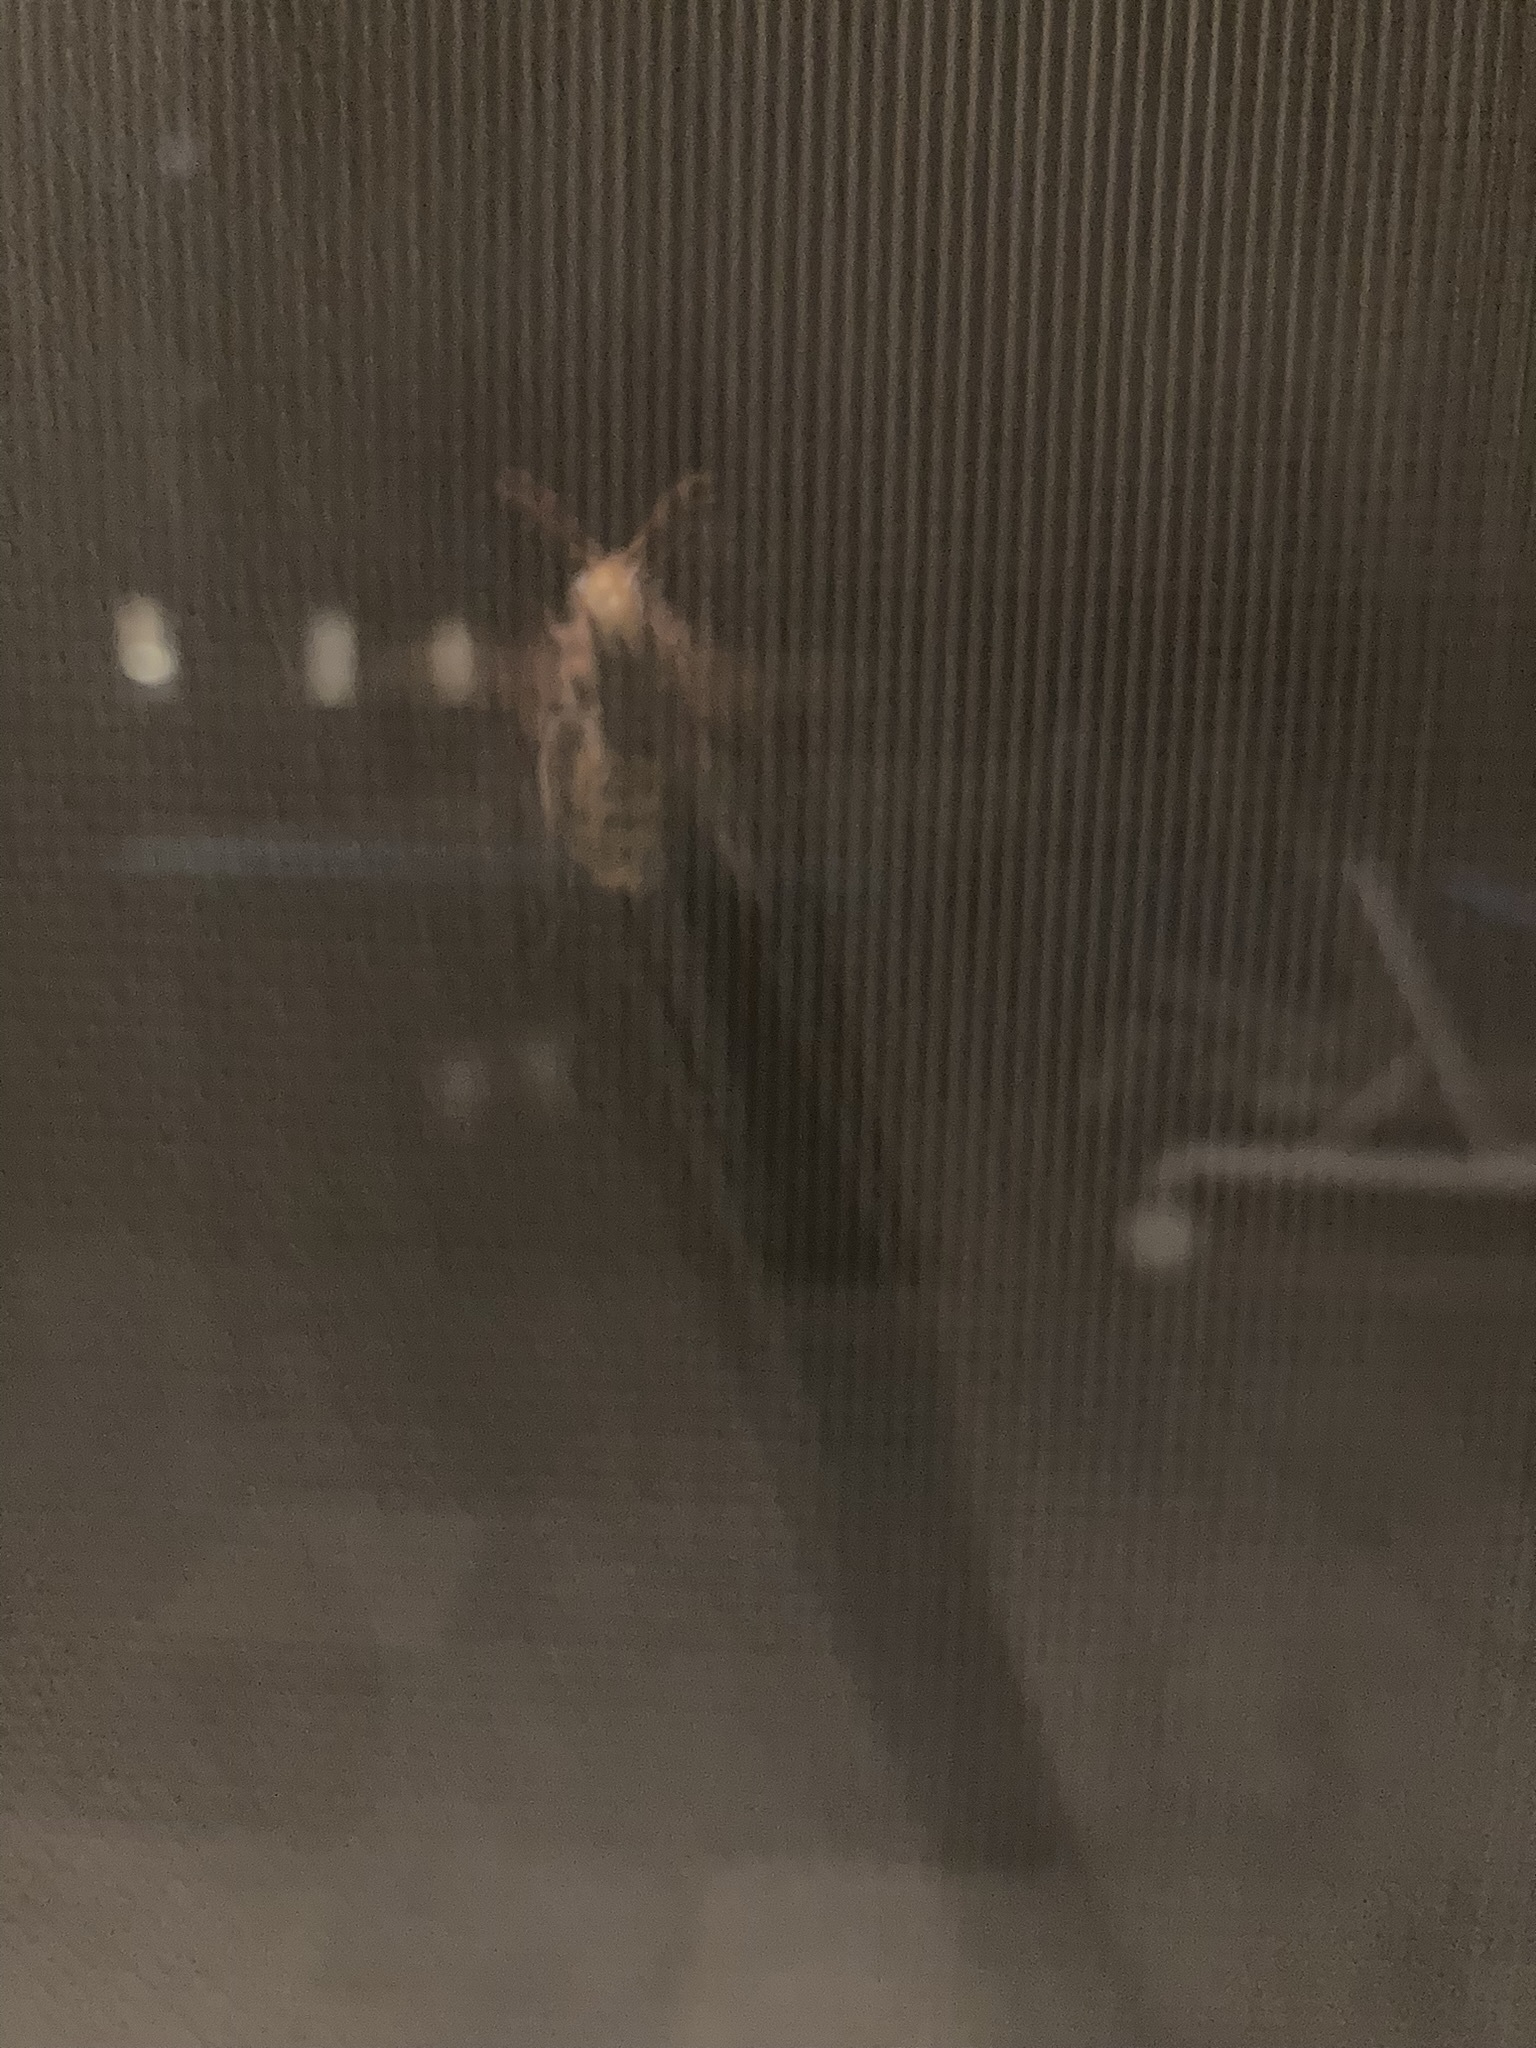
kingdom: Animalia
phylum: Arthropoda
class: Insecta
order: Hymenoptera
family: Vespidae
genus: Vespa
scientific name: Vespa crabro
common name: Hornet
